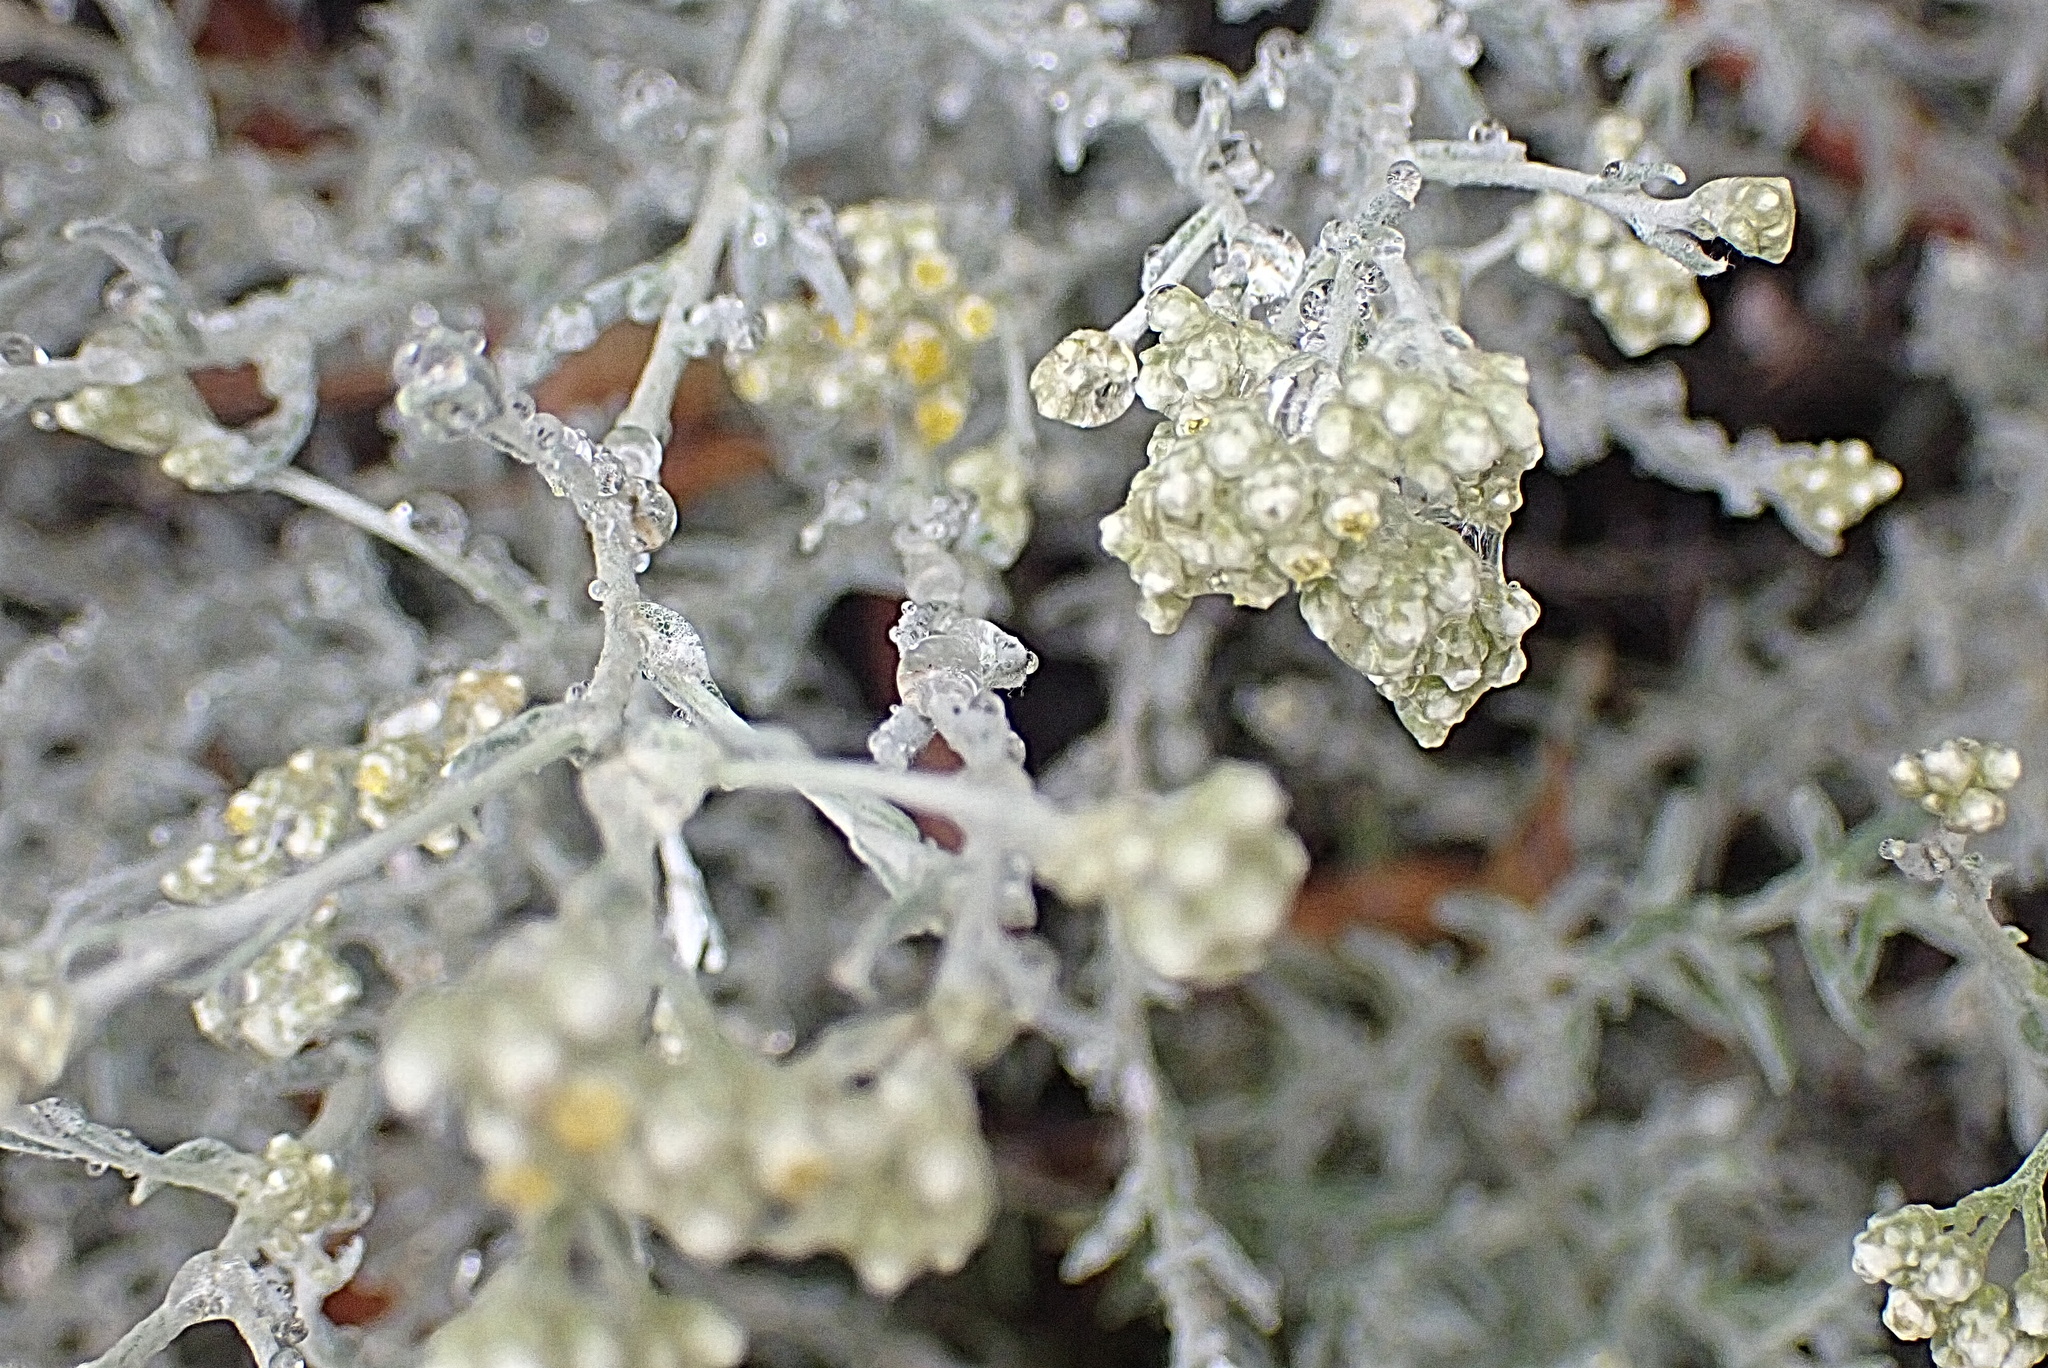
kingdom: Plantae
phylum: Tracheophyta
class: Magnoliopsida
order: Asterales
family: Asteraceae
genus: Helichrysum
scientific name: Helichrysum rosum
